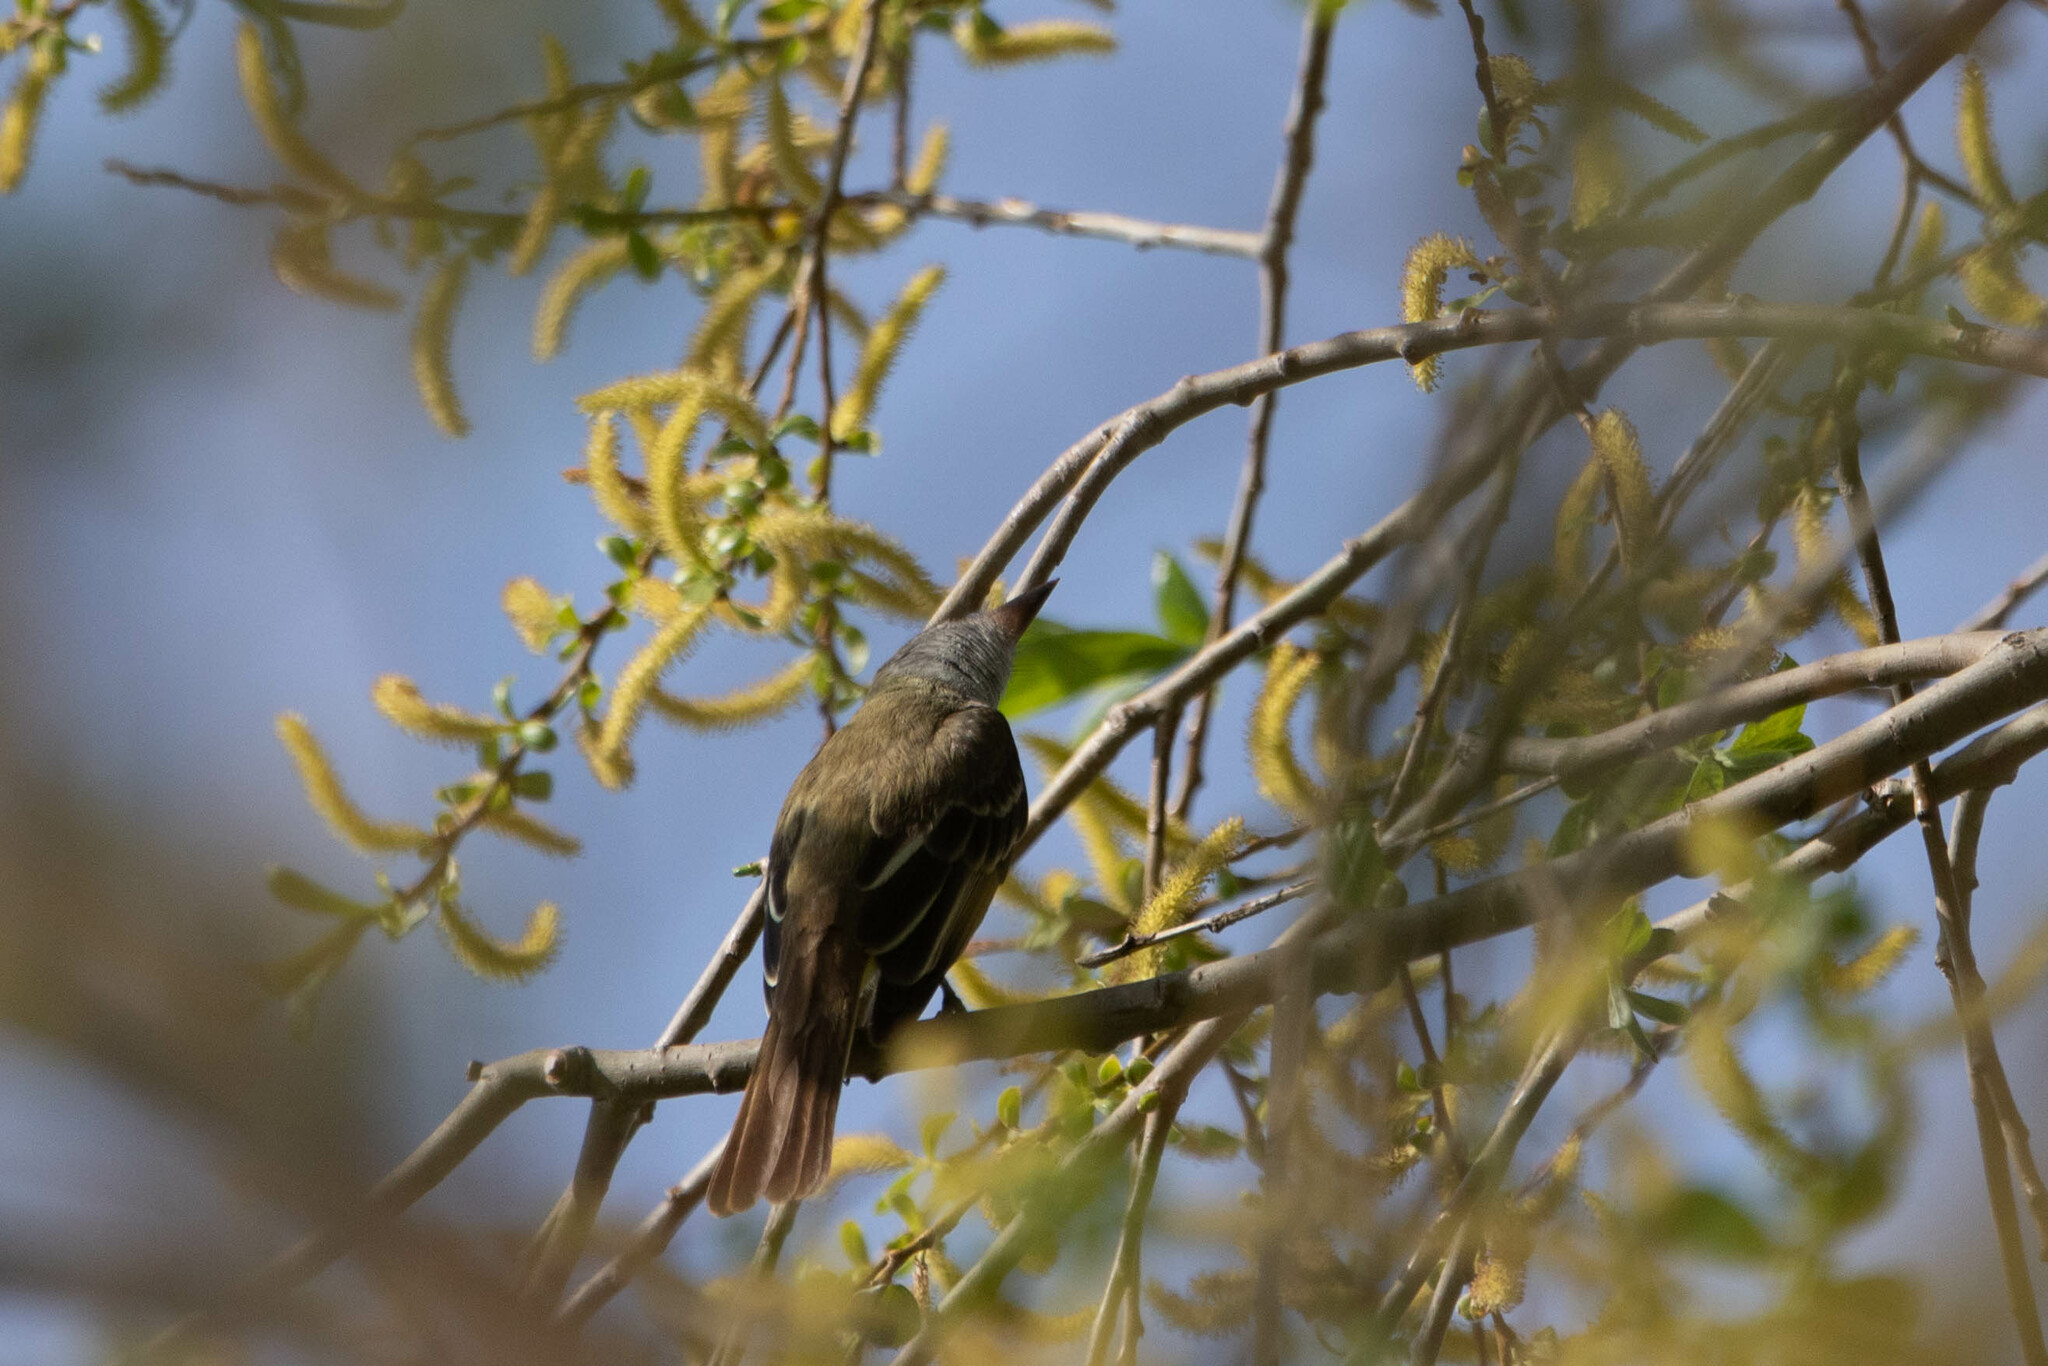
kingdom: Animalia
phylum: Chordata
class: Aves
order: Passeriformes
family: Tyrannidae
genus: Myiarchus
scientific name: Myiarchus crinitus
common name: Great crested flycatcher
